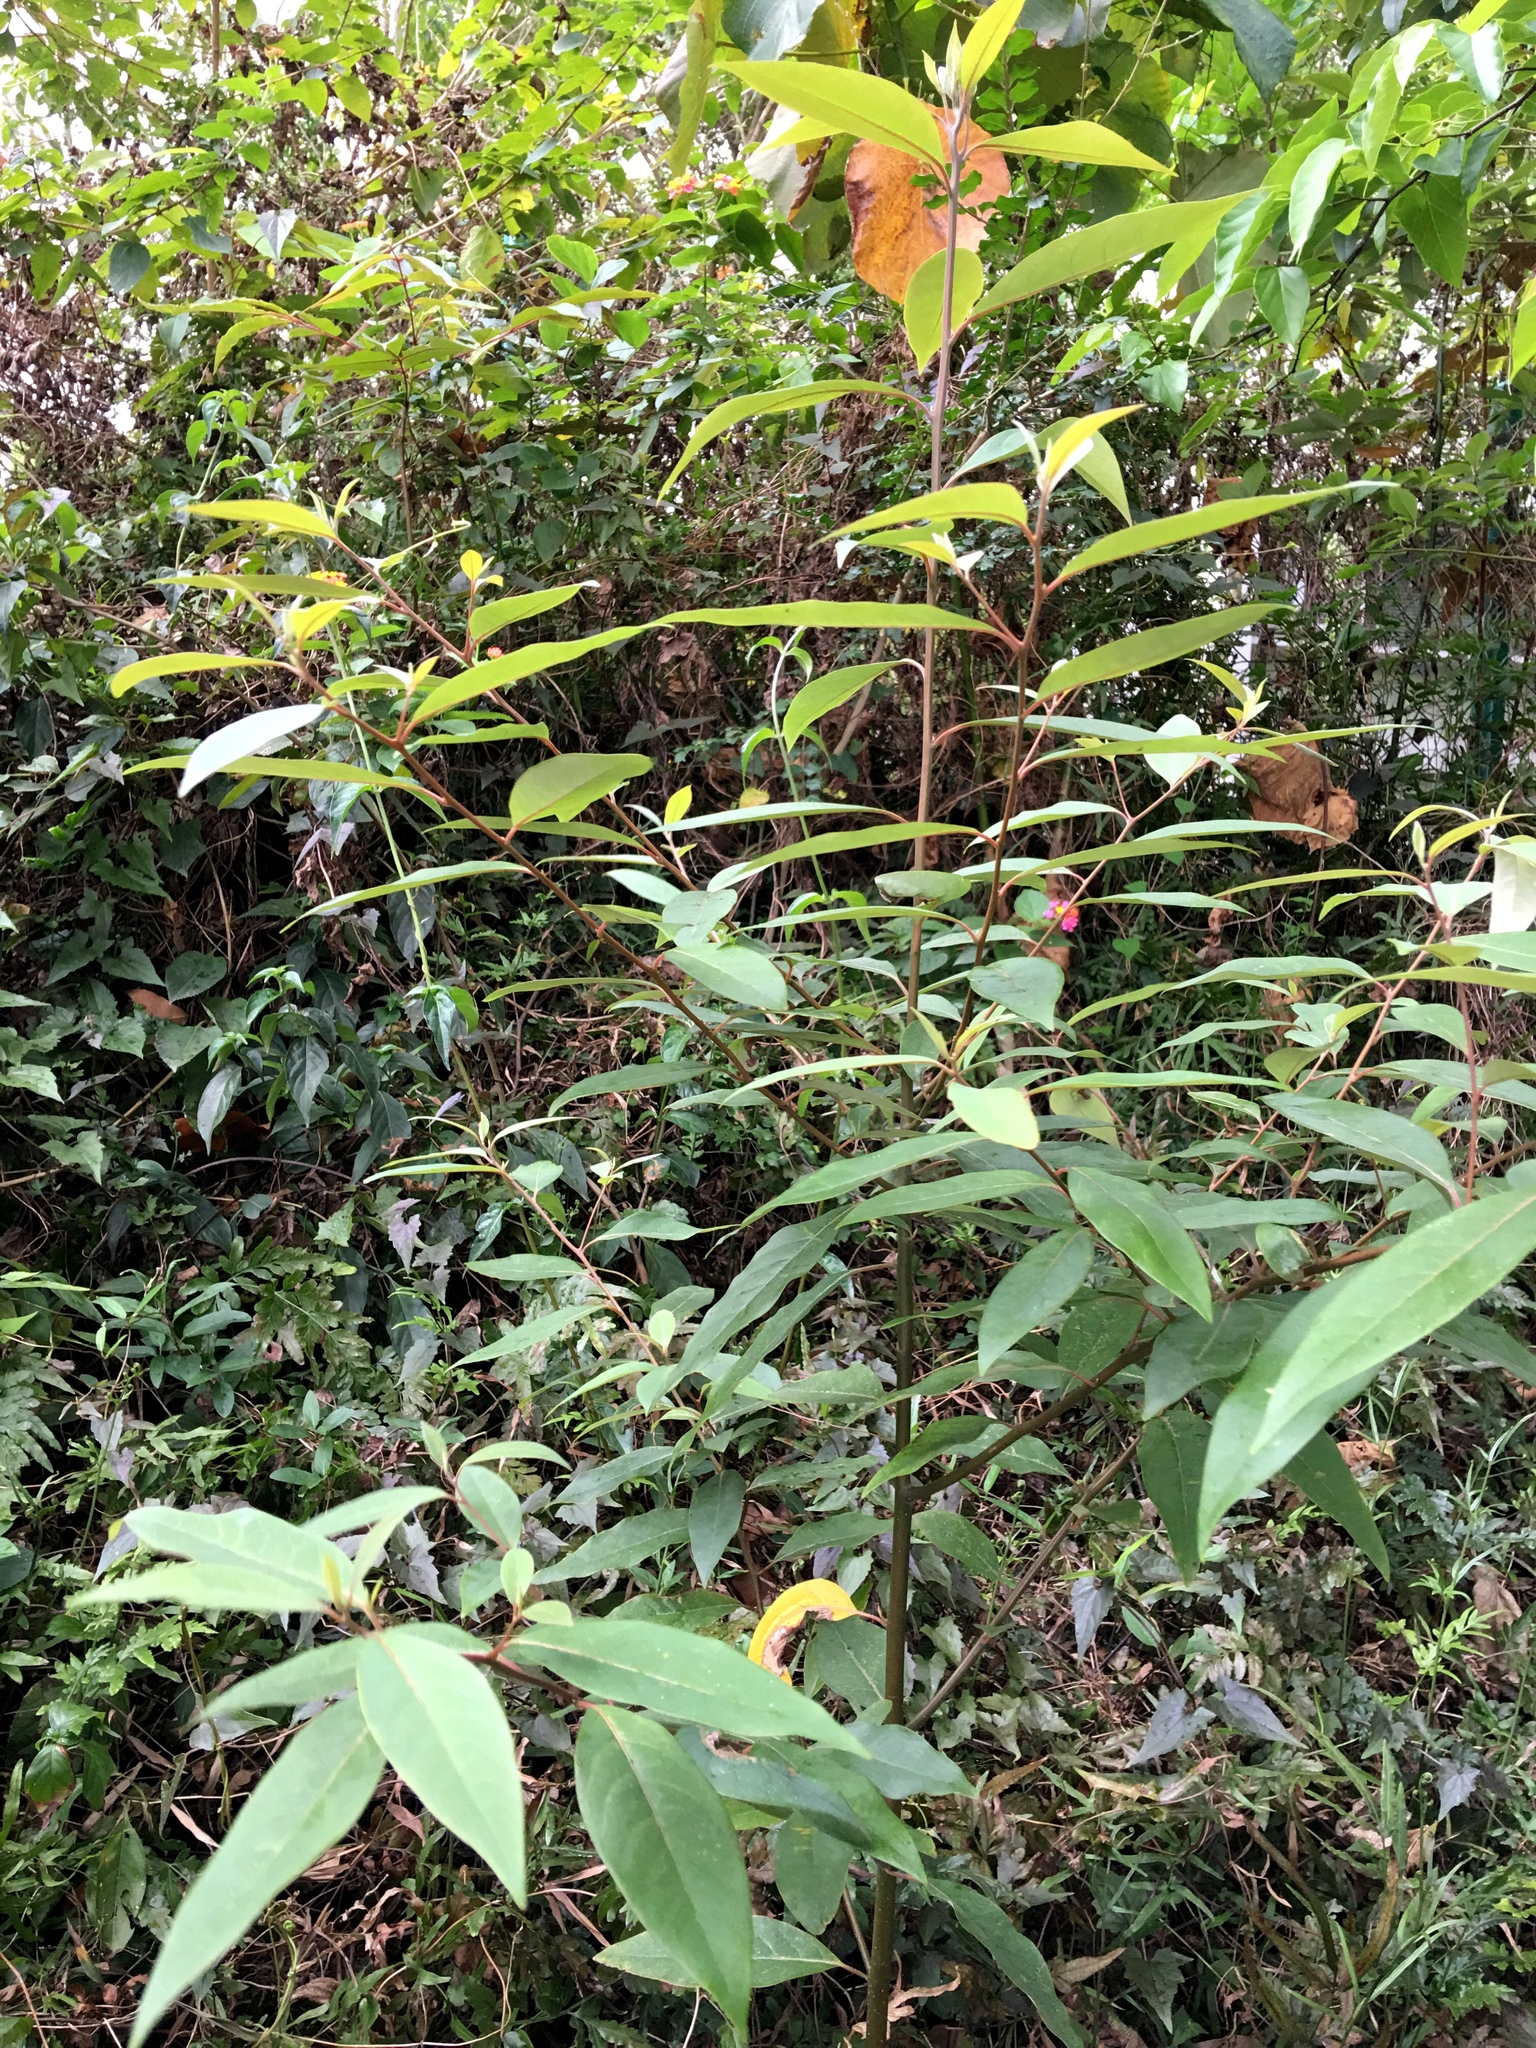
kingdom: Plantae
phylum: Tracheophyta
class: Magnoliopsida
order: Laurales
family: Lauraceae
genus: Litsea
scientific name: Litsea cubeba
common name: Mountain-pepper
